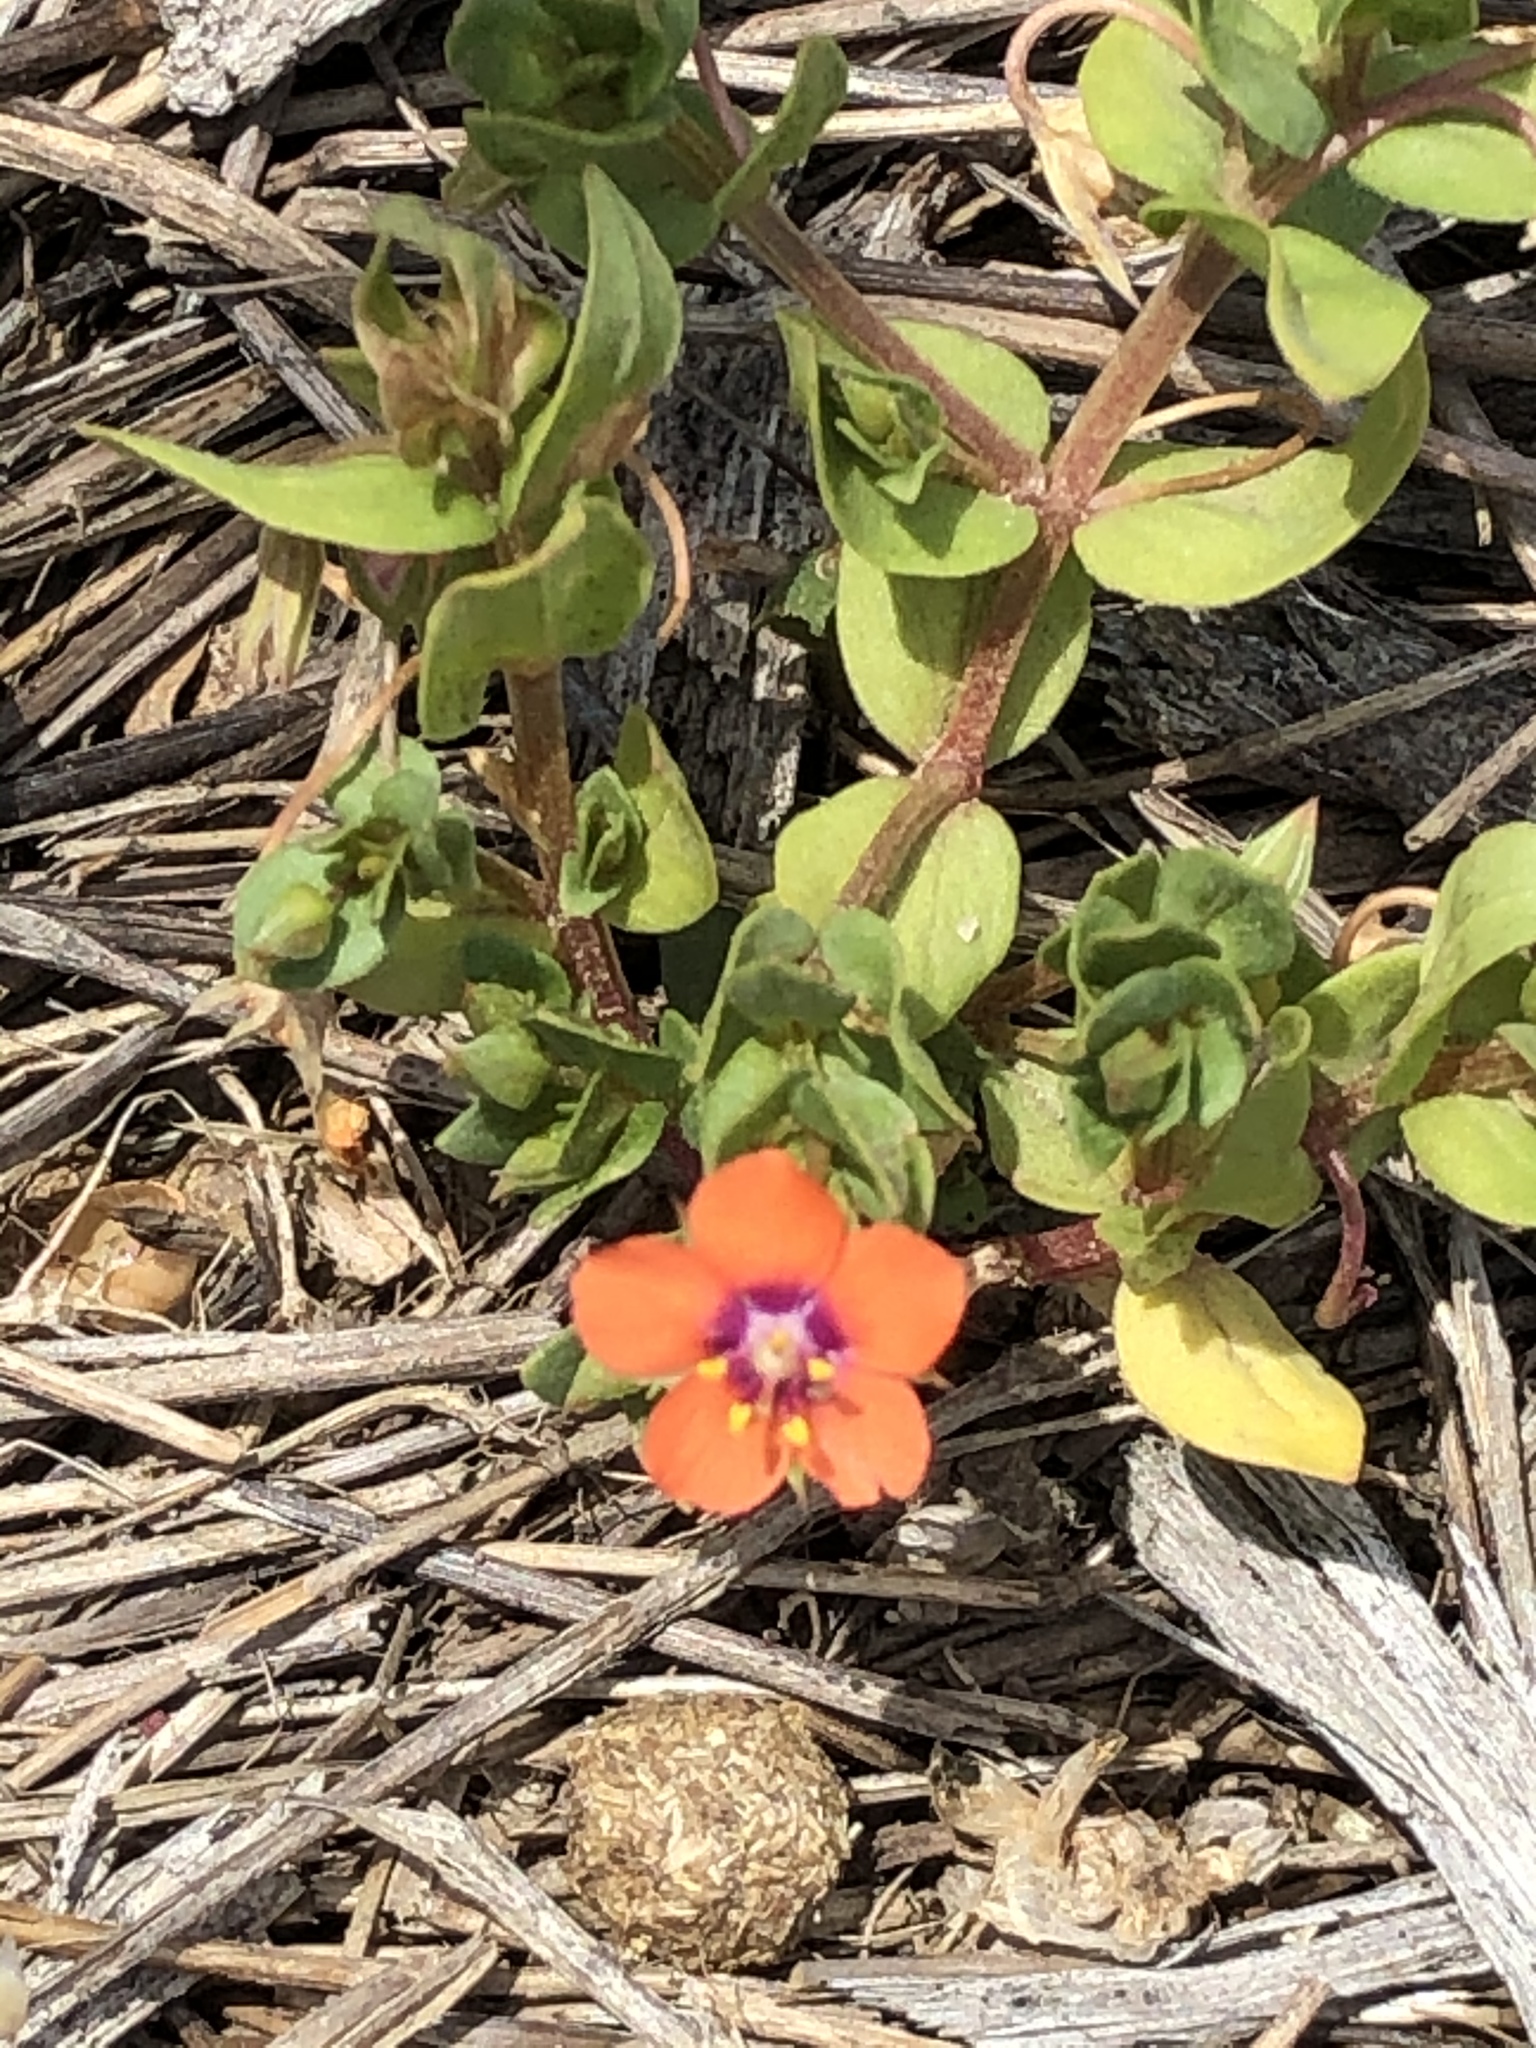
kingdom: Plantae
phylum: Tracheophyta
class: Magnoliopsida
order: Ericales
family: Primulaceae
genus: Lysimachia
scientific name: Lysimachia arvensis
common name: Scarlet pimpernel
